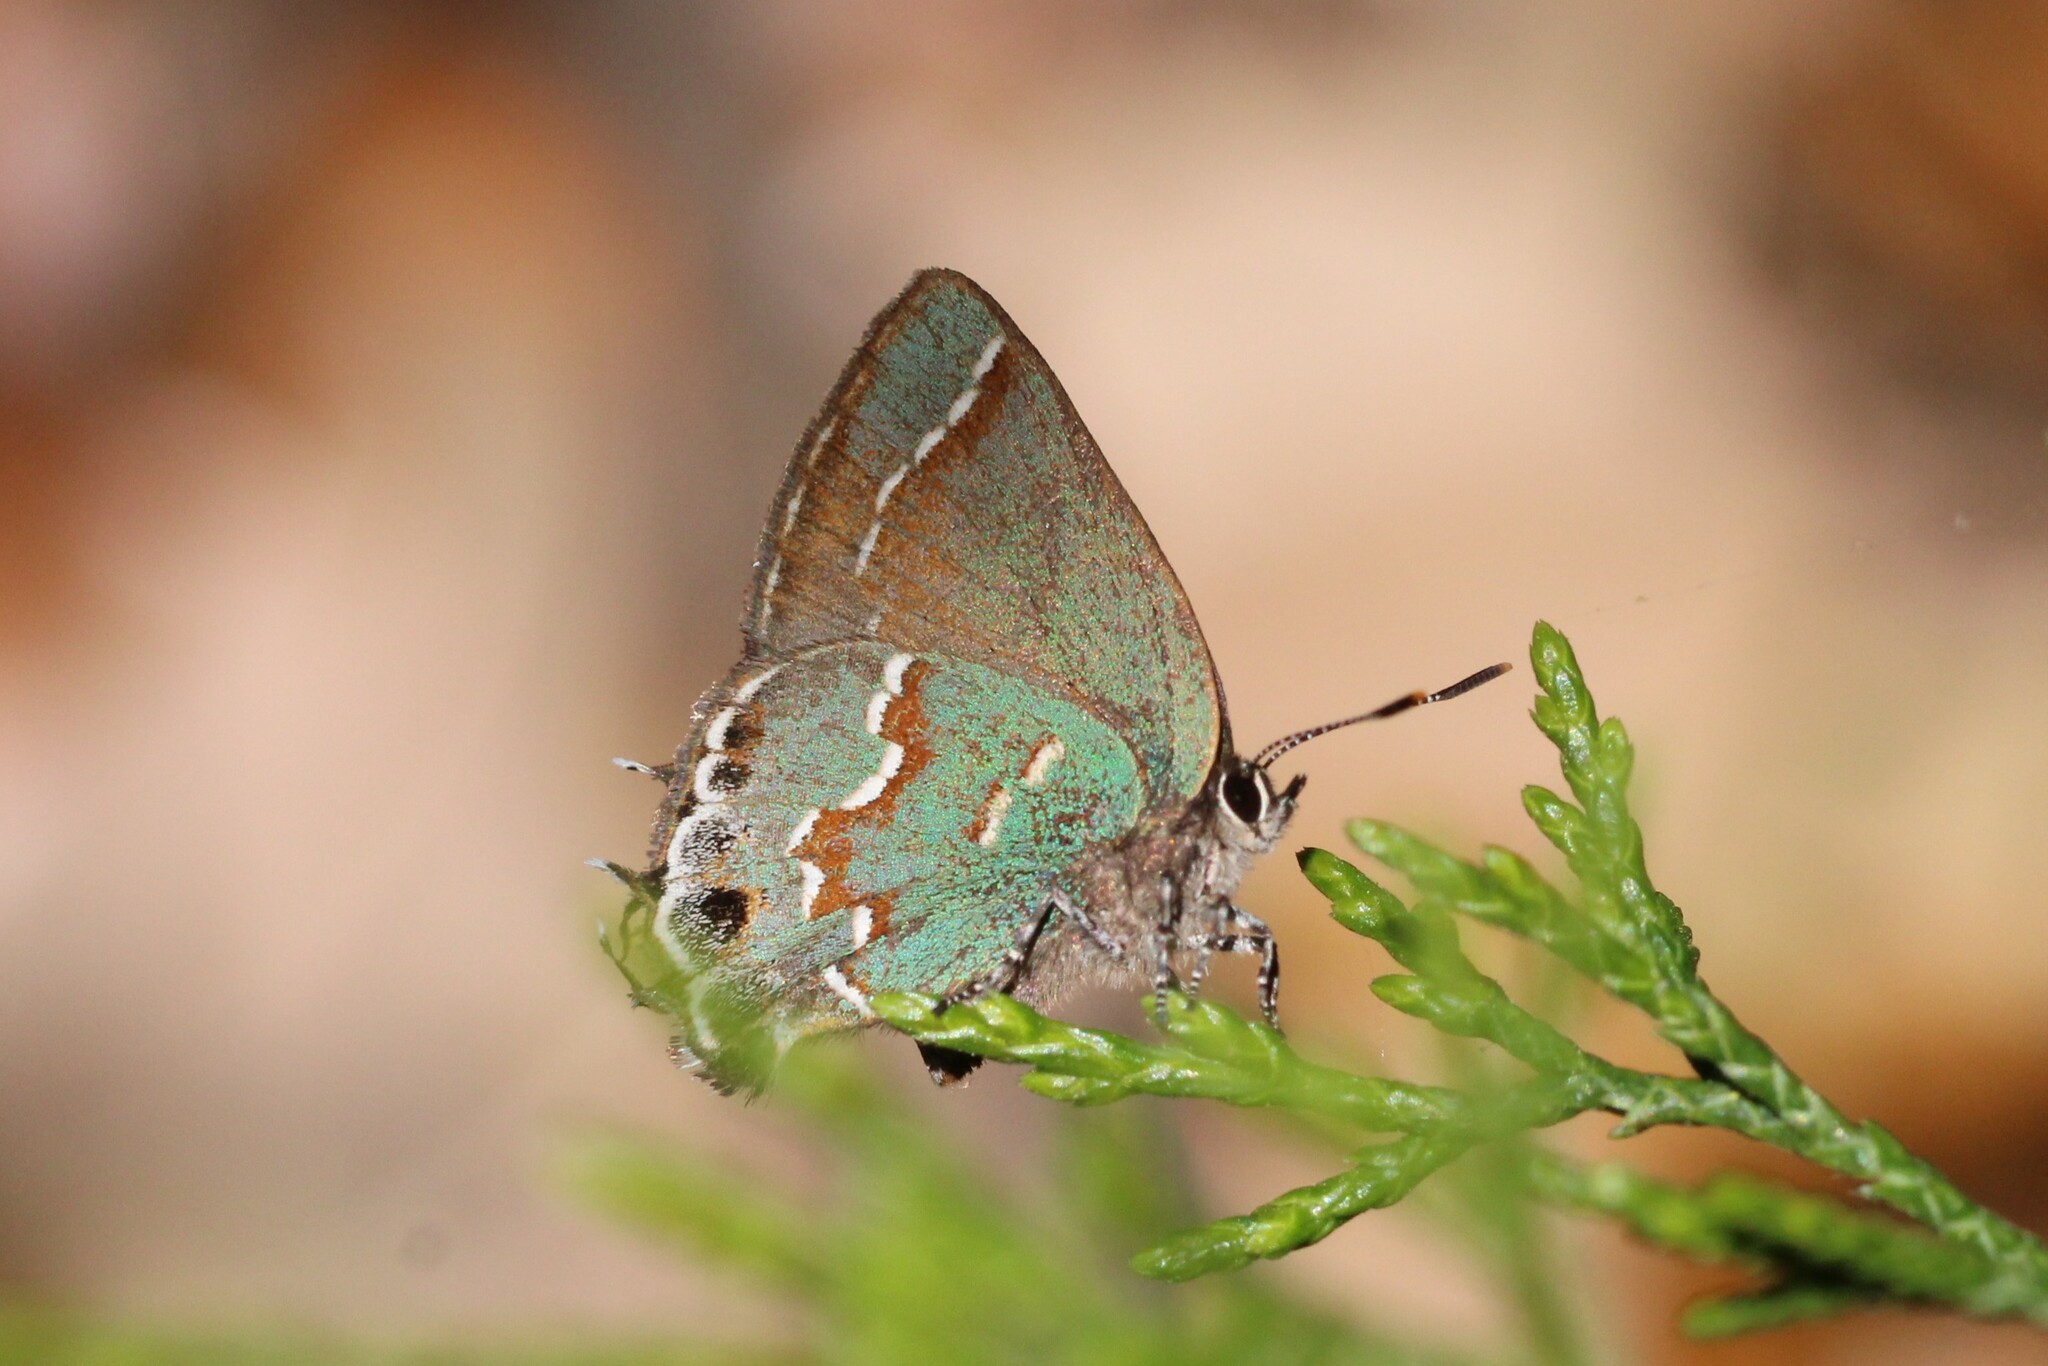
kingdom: Animalia
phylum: Arthropoda
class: Insecta
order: Lepidoptera
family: Lycaenidae
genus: Mitoura
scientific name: Mitoura gryneus
